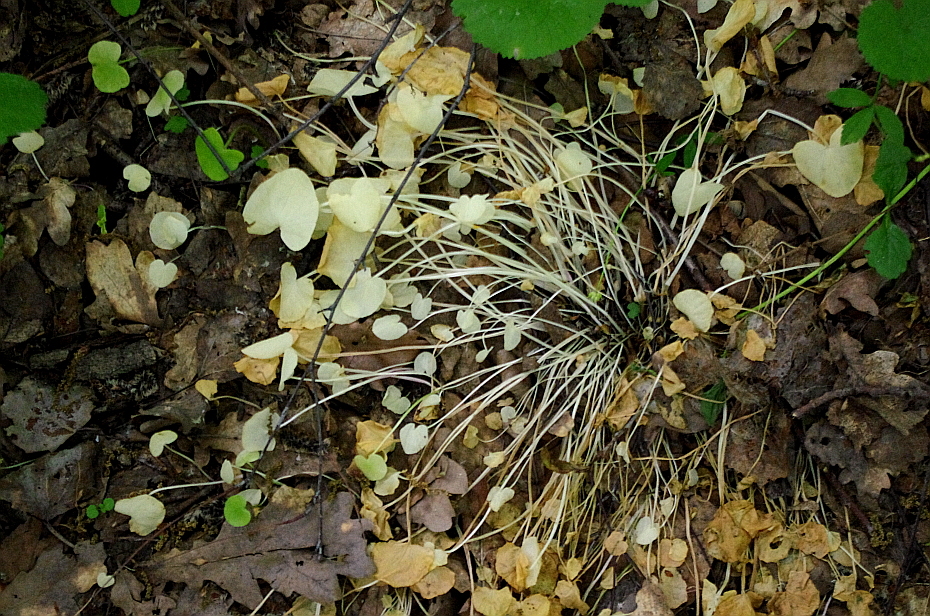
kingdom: Plantae
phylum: Tracheophyta
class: Magnoliopsida
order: Ranunculales
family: Ranunculaceae
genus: Ficaria
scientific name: Ficaria verna
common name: Lesser celandine
